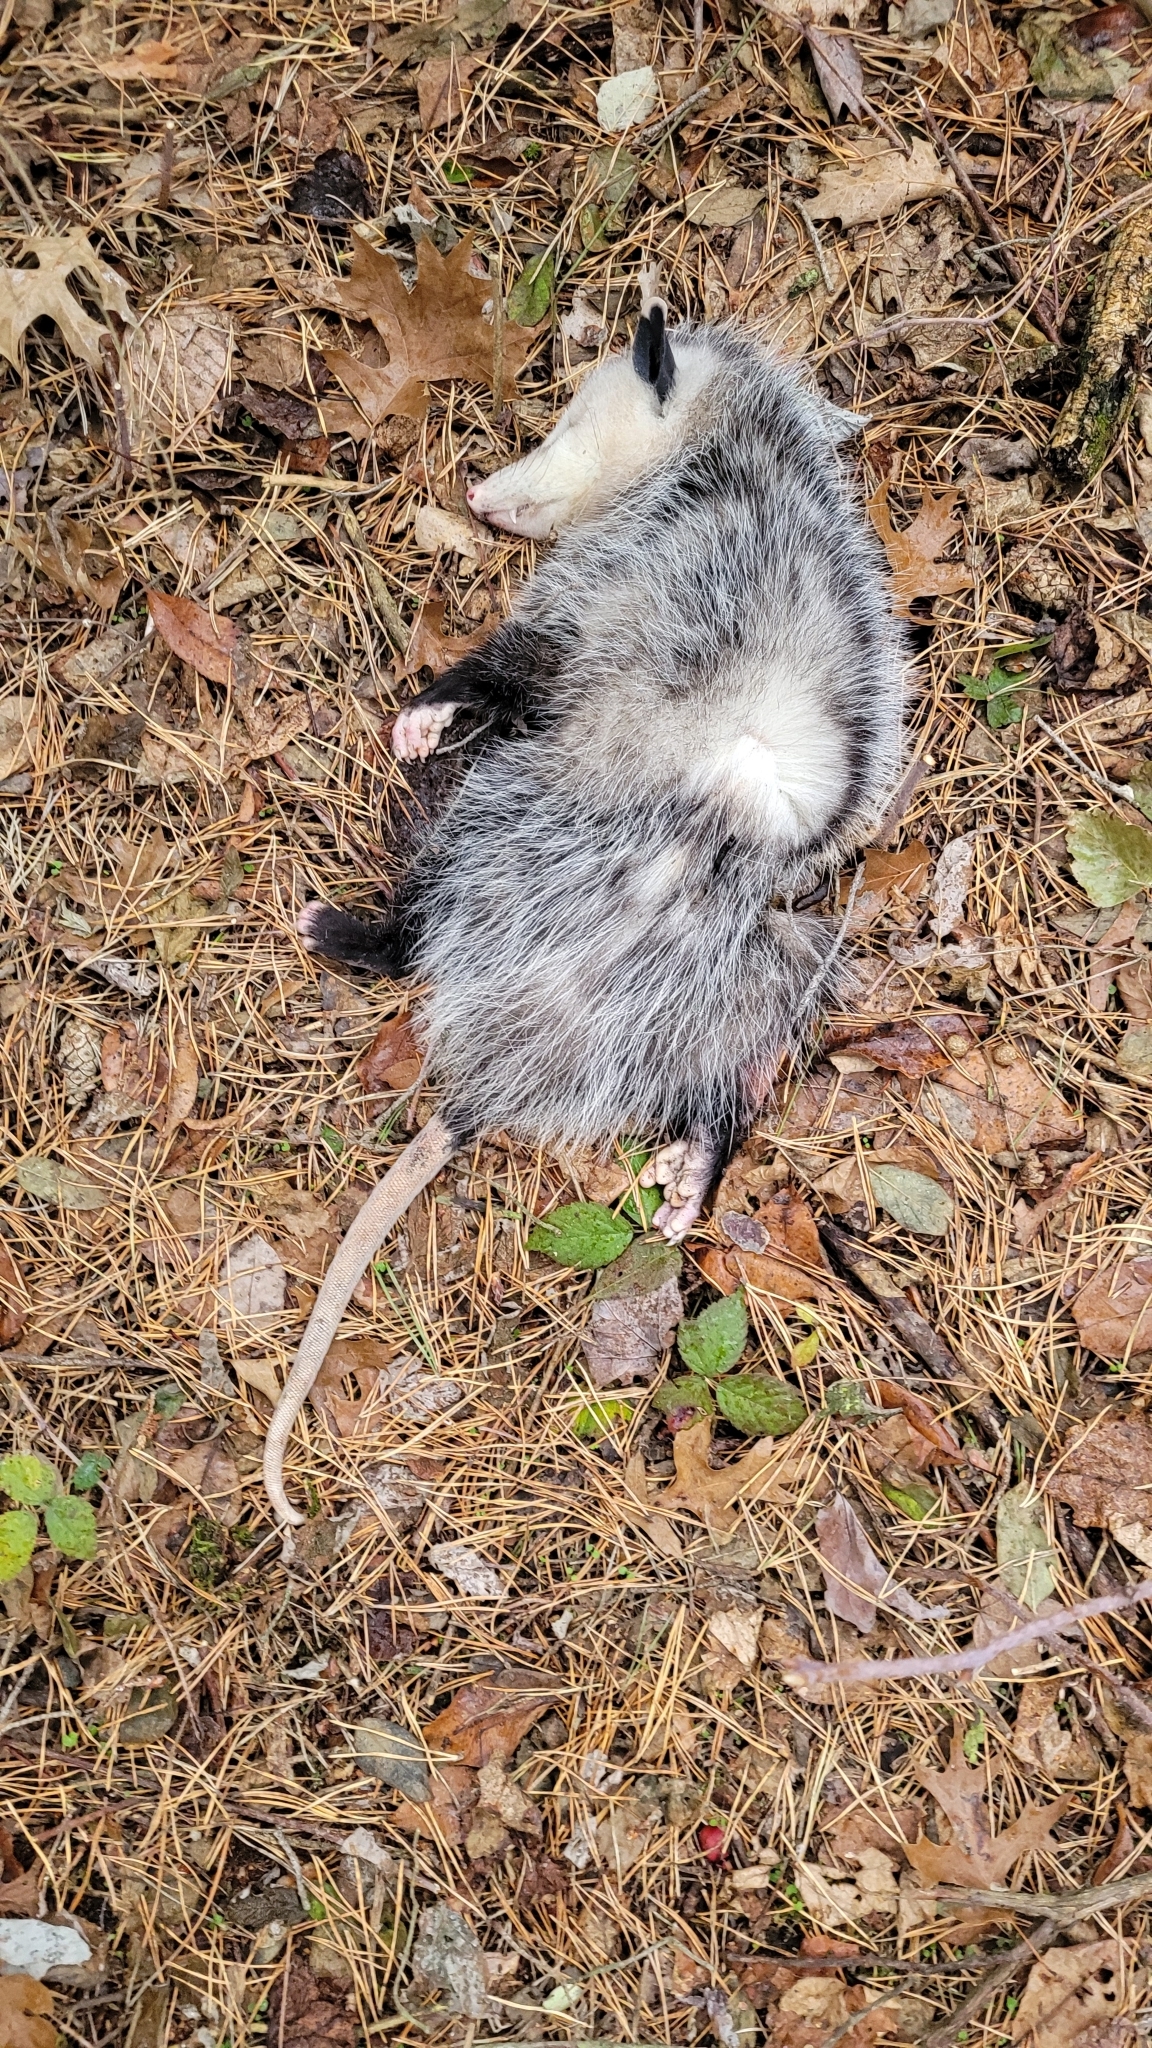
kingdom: Animalia
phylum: Chordata
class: Mammalia
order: Didelphimorphia
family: Didelphidae
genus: Didelphis
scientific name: Didelphis virginiana
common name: Virginia opossum
